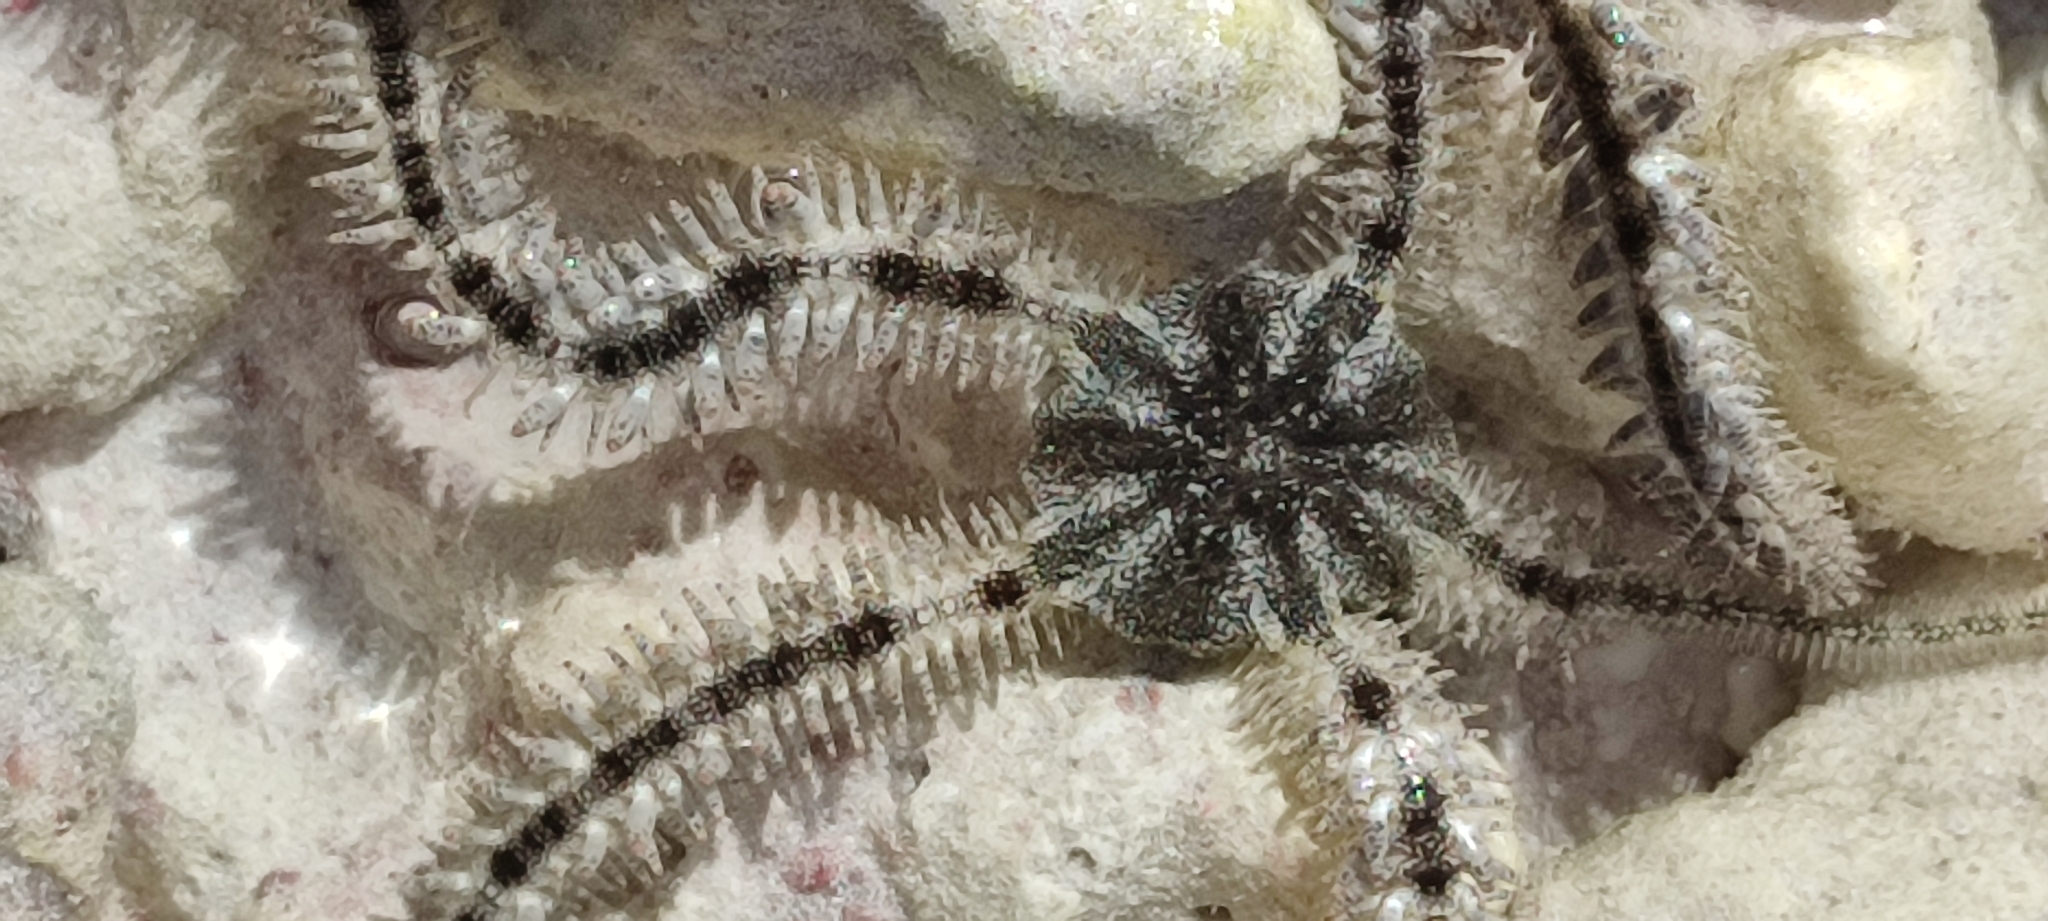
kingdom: Animalia
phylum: Echinodermata
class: Ophiuroidea
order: Ophiacanthida
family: Ophiocomidae
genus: Ophiocoma
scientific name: Ophiocoma scolopendrina
